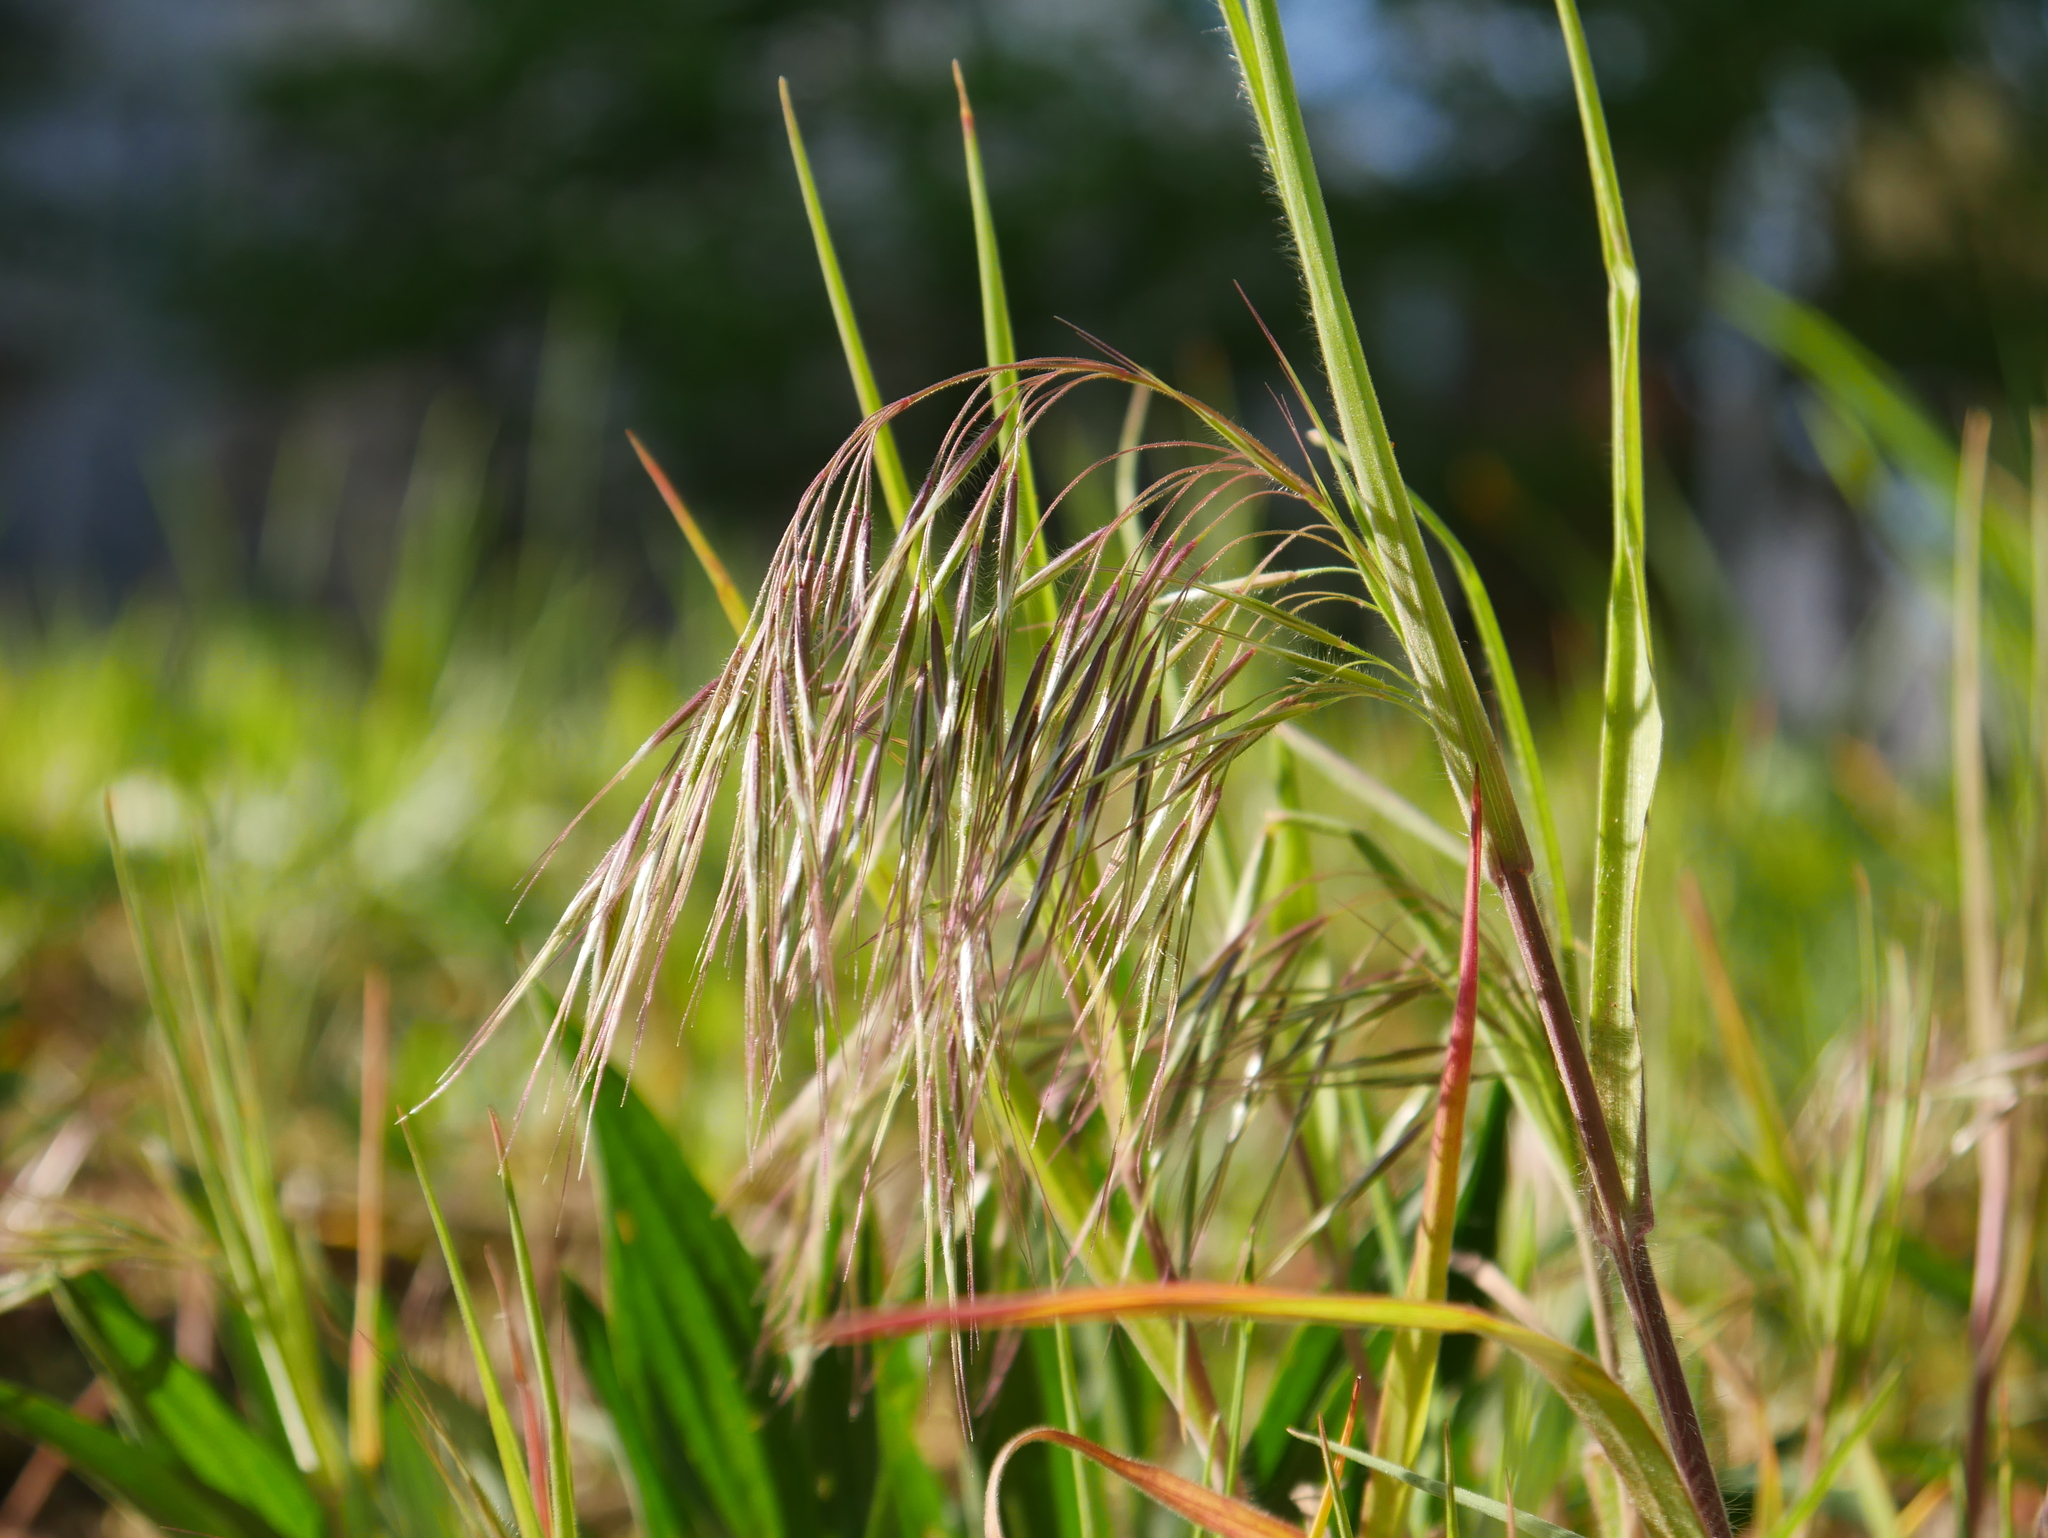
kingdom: Plantae
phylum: Tracheophyta
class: Liliopsida
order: Poales
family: Poaceae
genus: Bromus
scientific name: Bromus tectorum
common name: Cheatgrass
